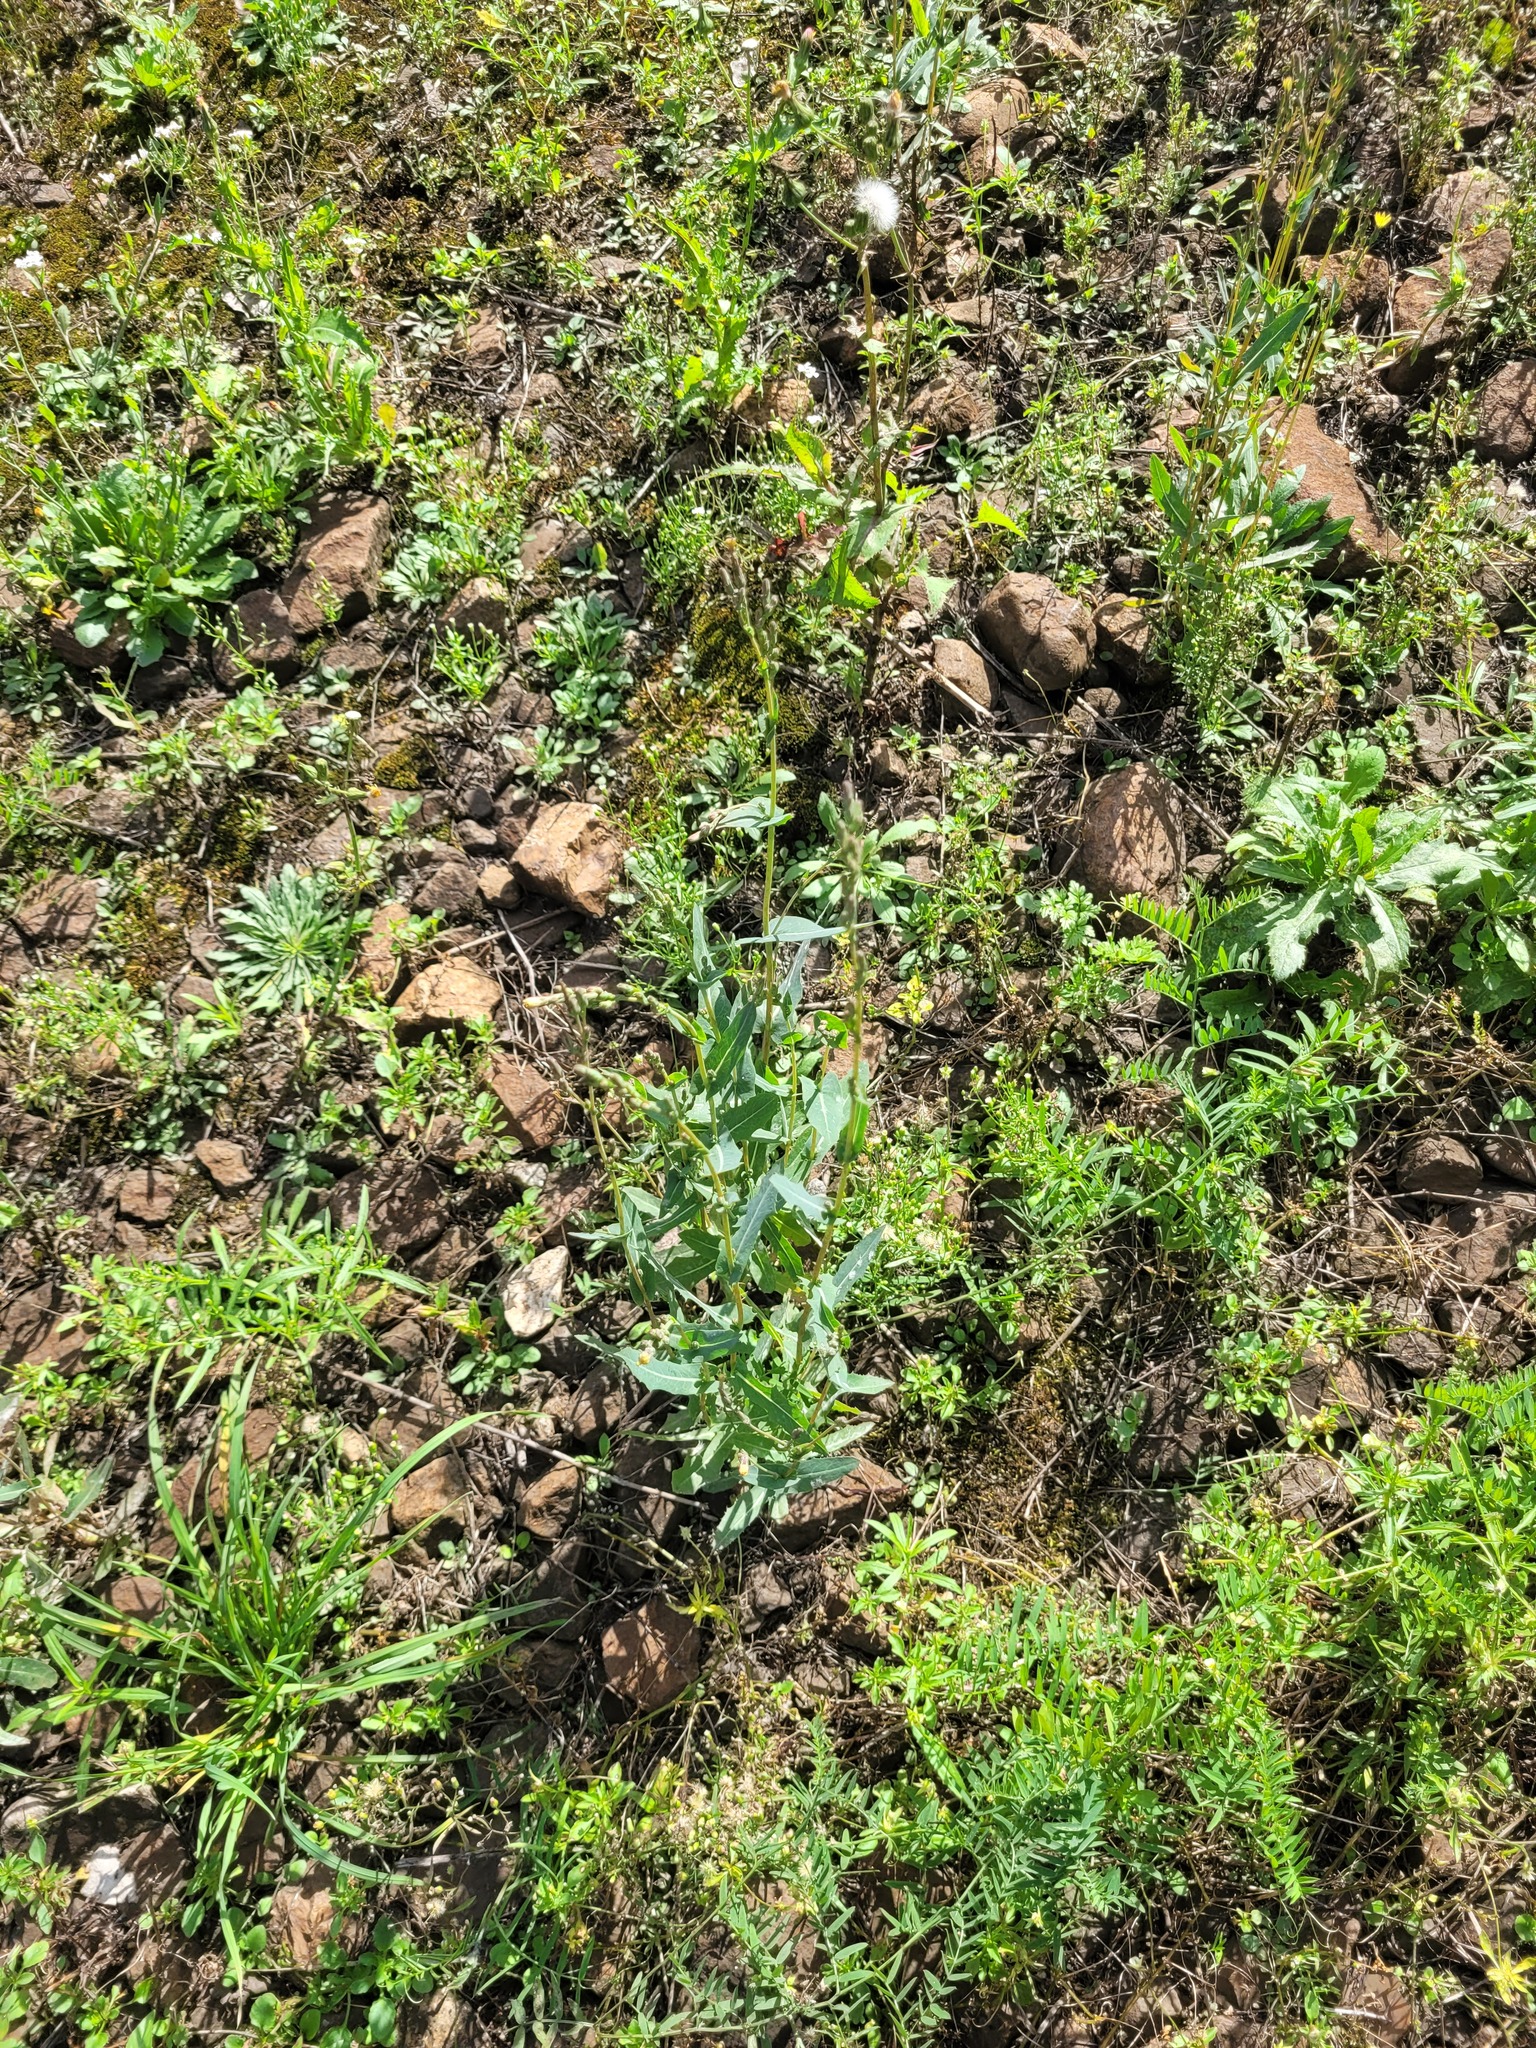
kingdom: Plantae
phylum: Tracheophyta
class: Magnoliopsida
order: Asterales
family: Asteraceae
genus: Lactuca
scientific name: Lactuca serriola
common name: Prickly lettuce
